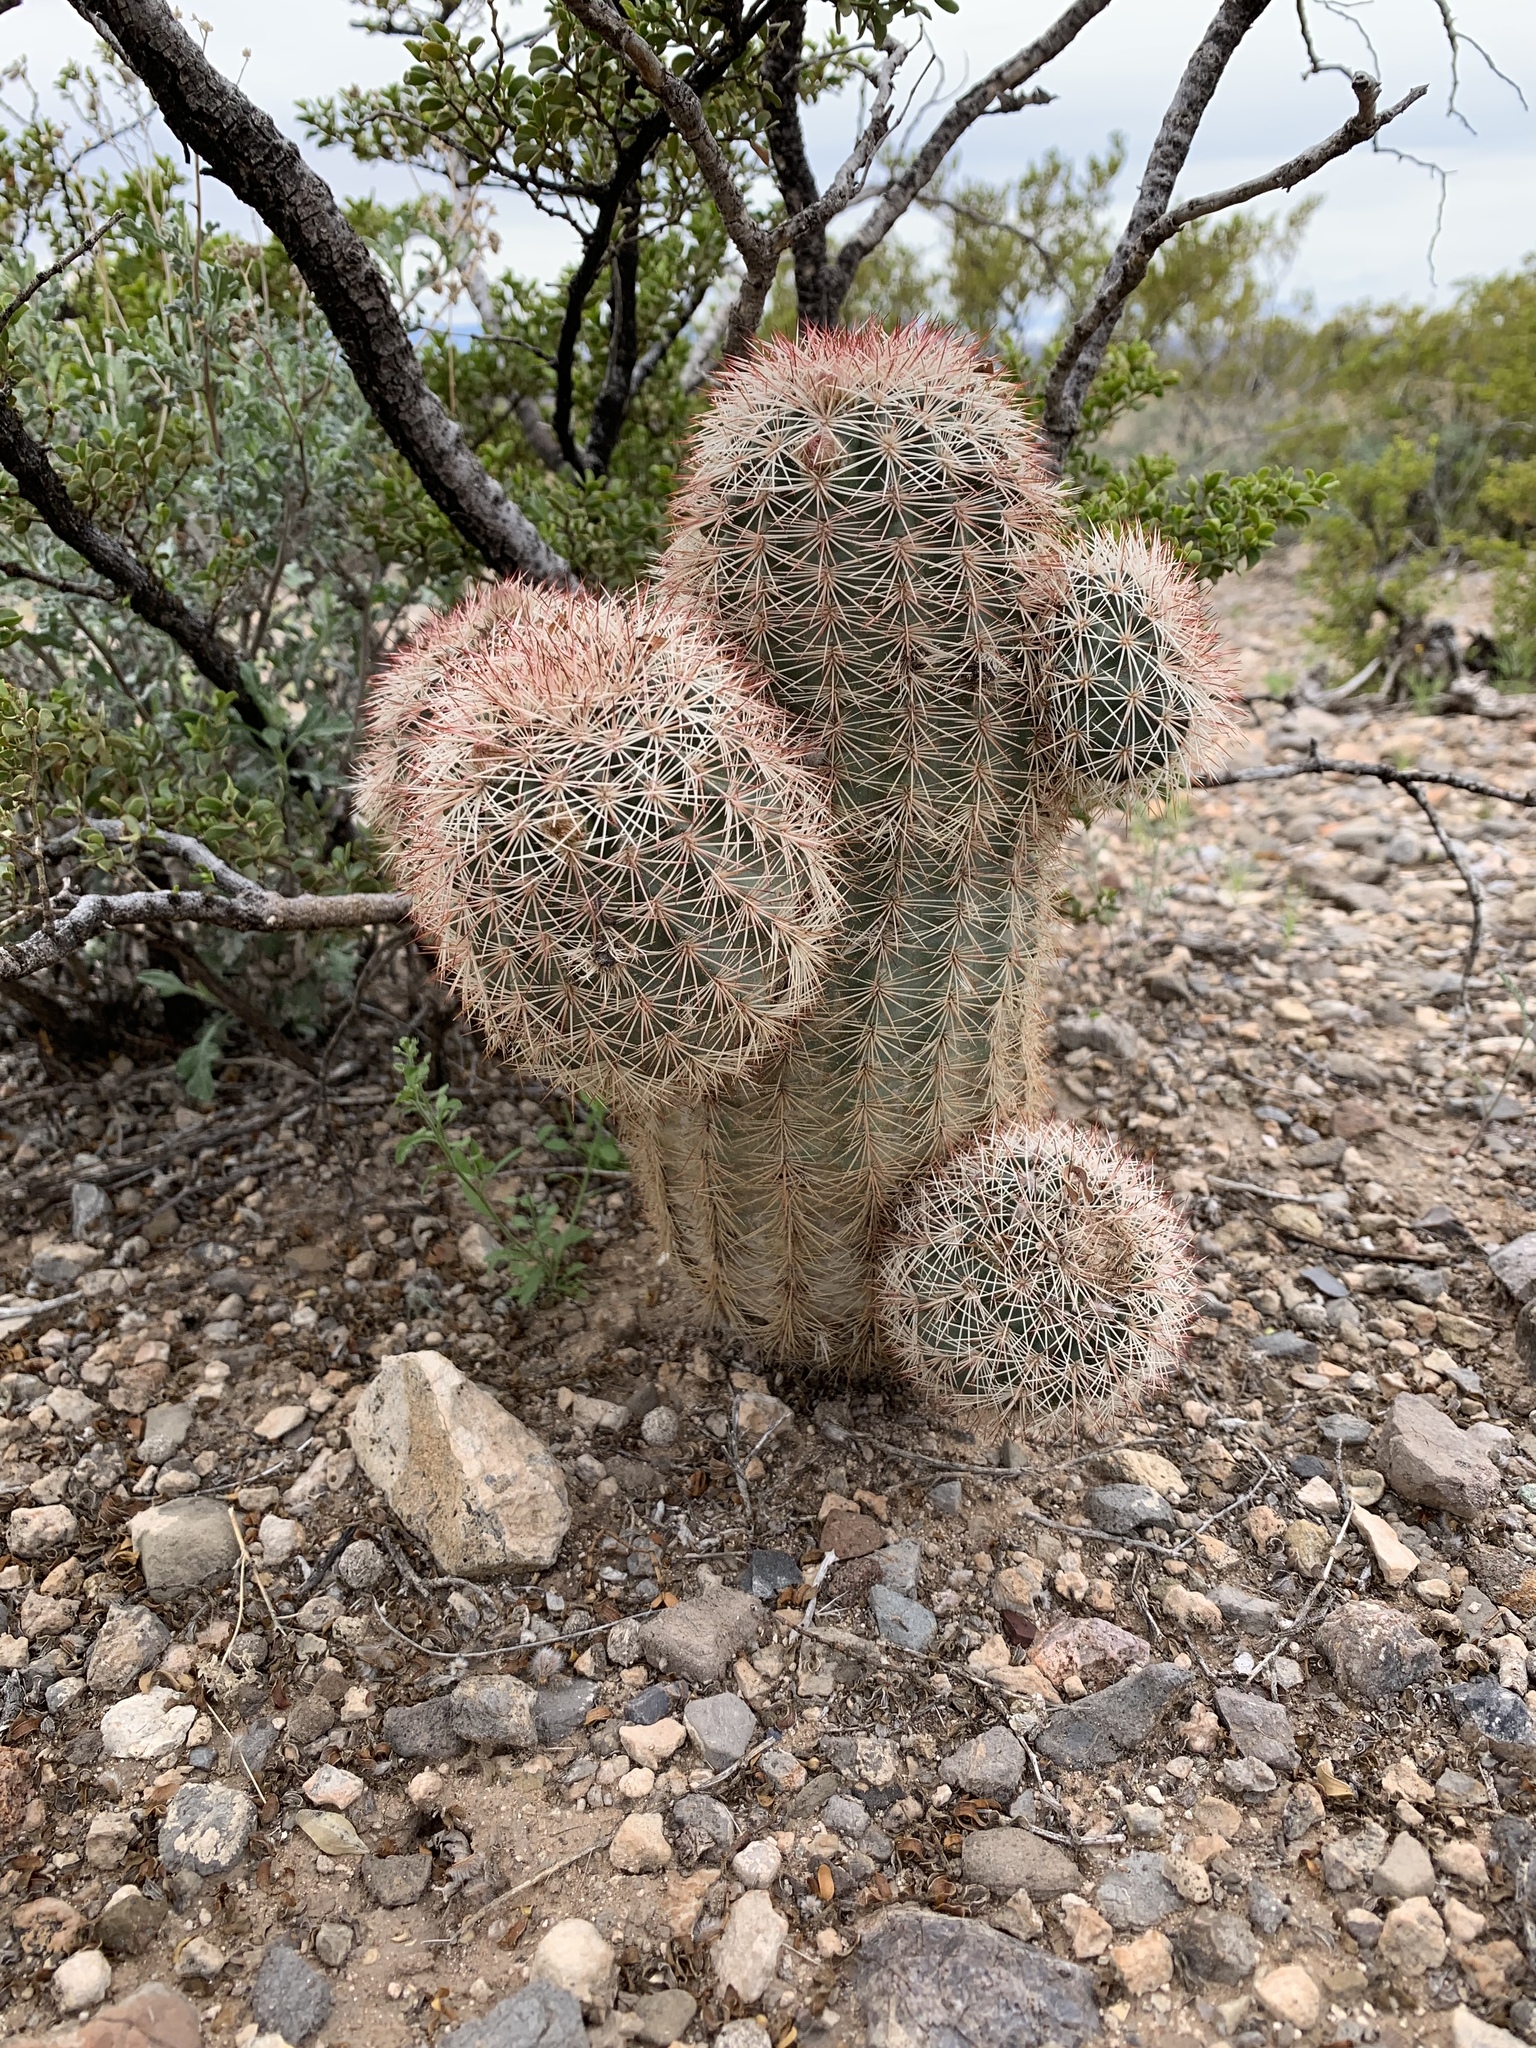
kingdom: Plantae
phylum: Tracheophyta
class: Magnoliopsida
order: Caryophyllales
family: Cactaceae
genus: Echinocereus
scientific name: Echinocereus dasyacanthus
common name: Spiny hedgehog cactus
